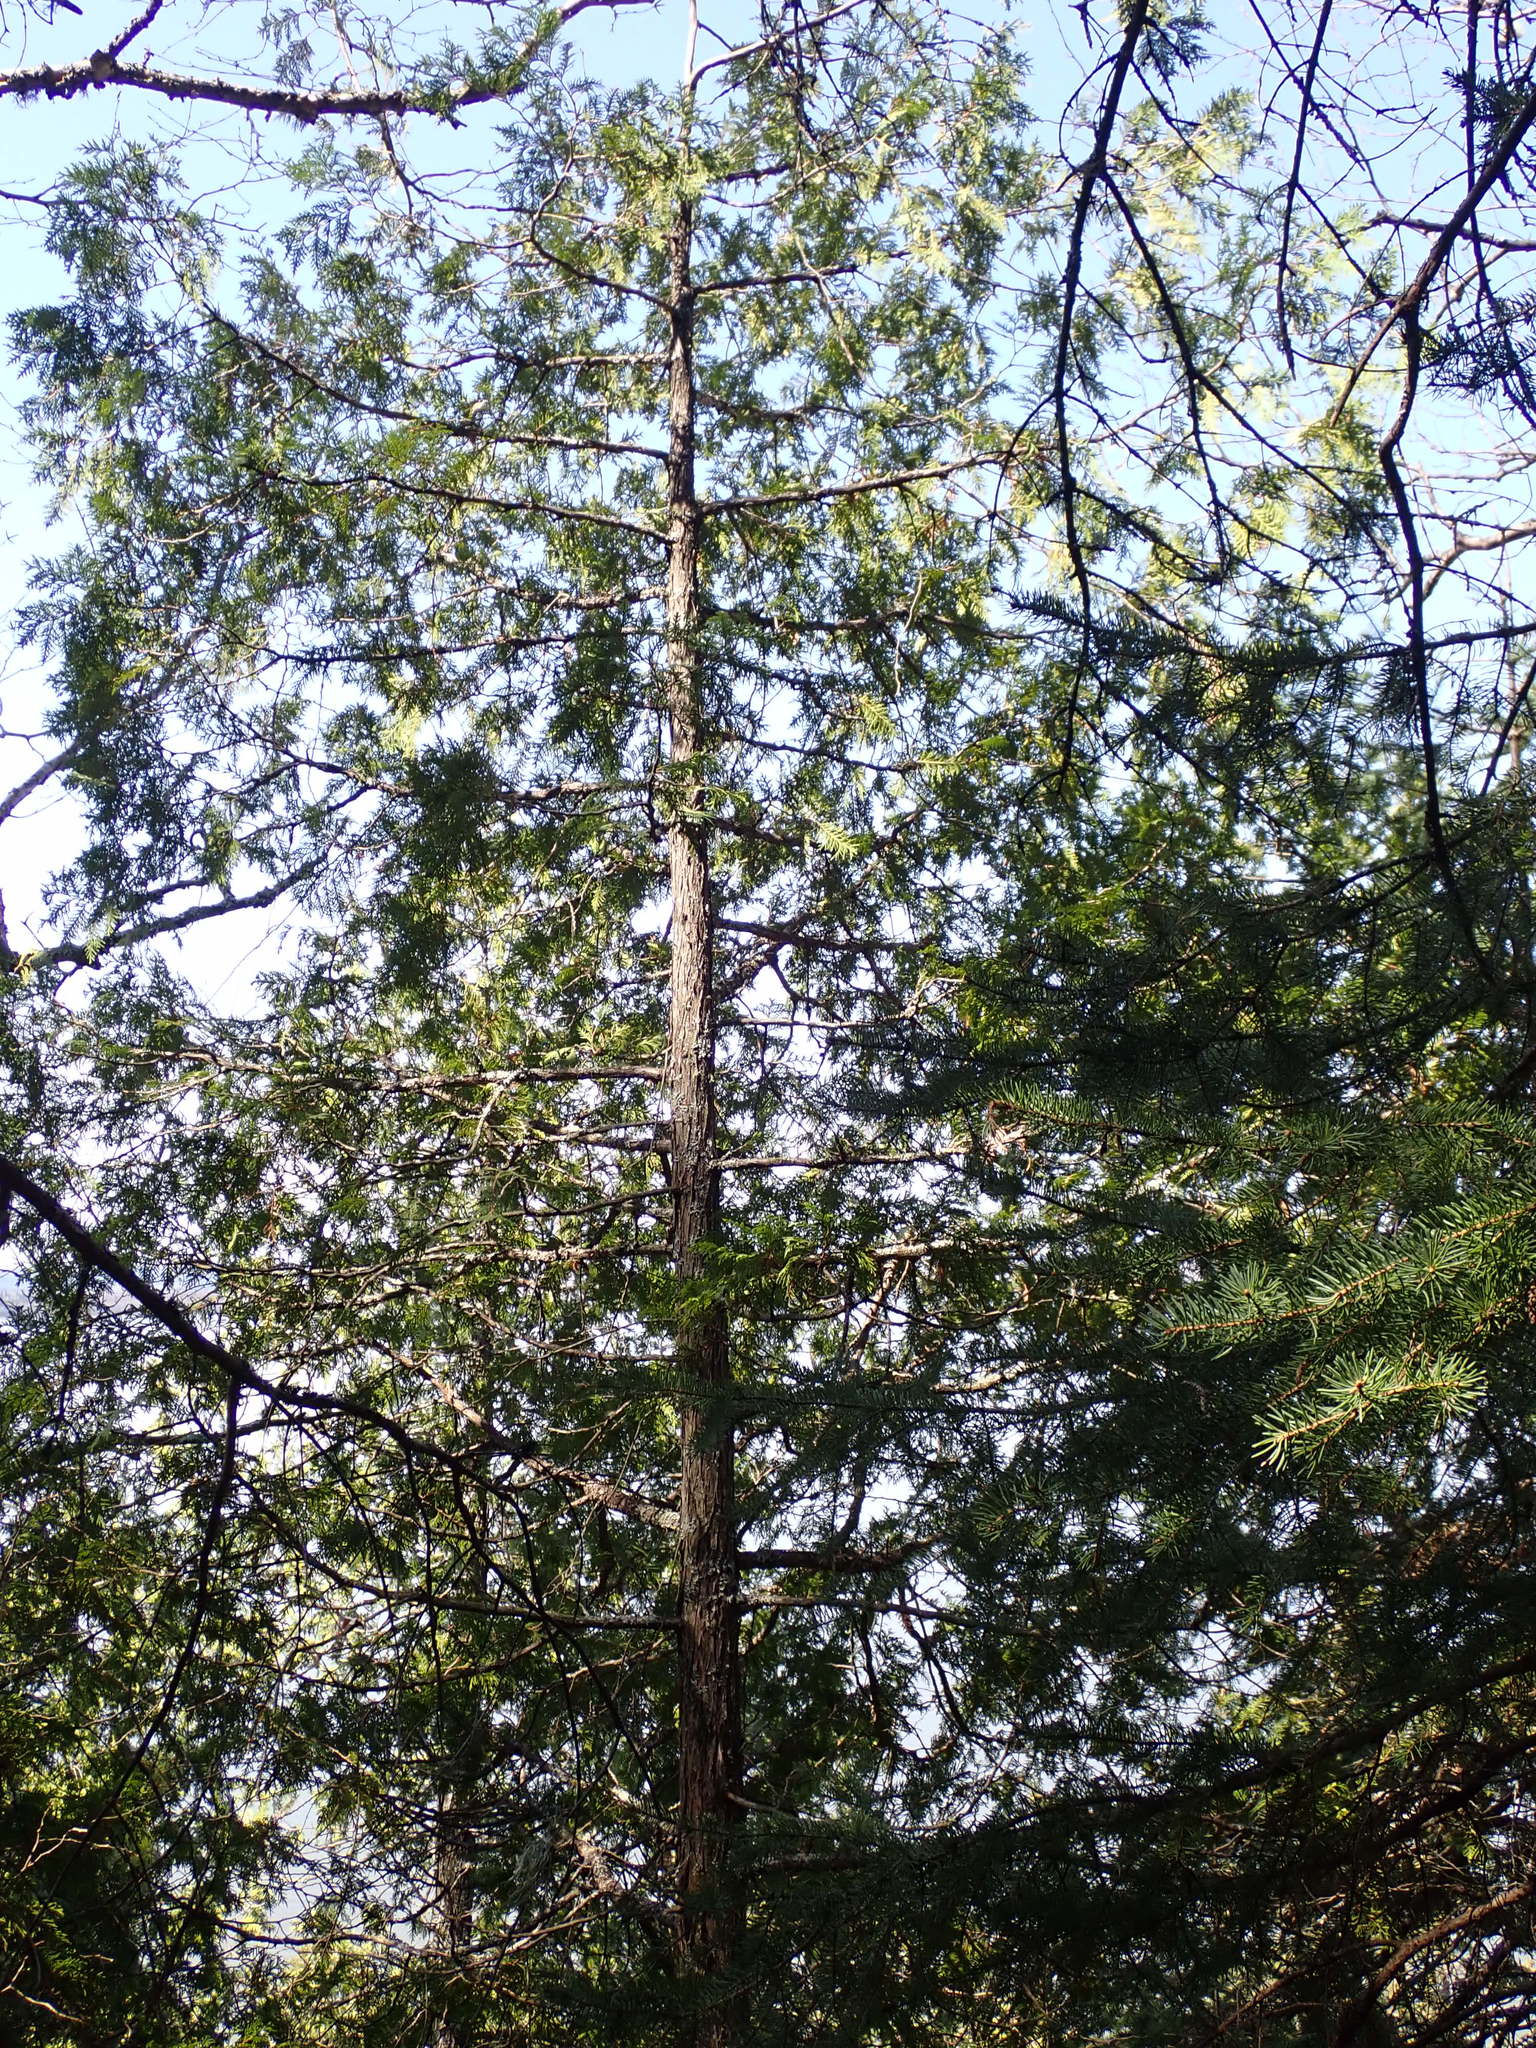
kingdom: Plantae
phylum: Tracheophyta
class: Pinopsida
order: Pinales
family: Cupressaceae
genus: Thuja
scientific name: Thuja occidentalis
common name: Northern white-cedar
